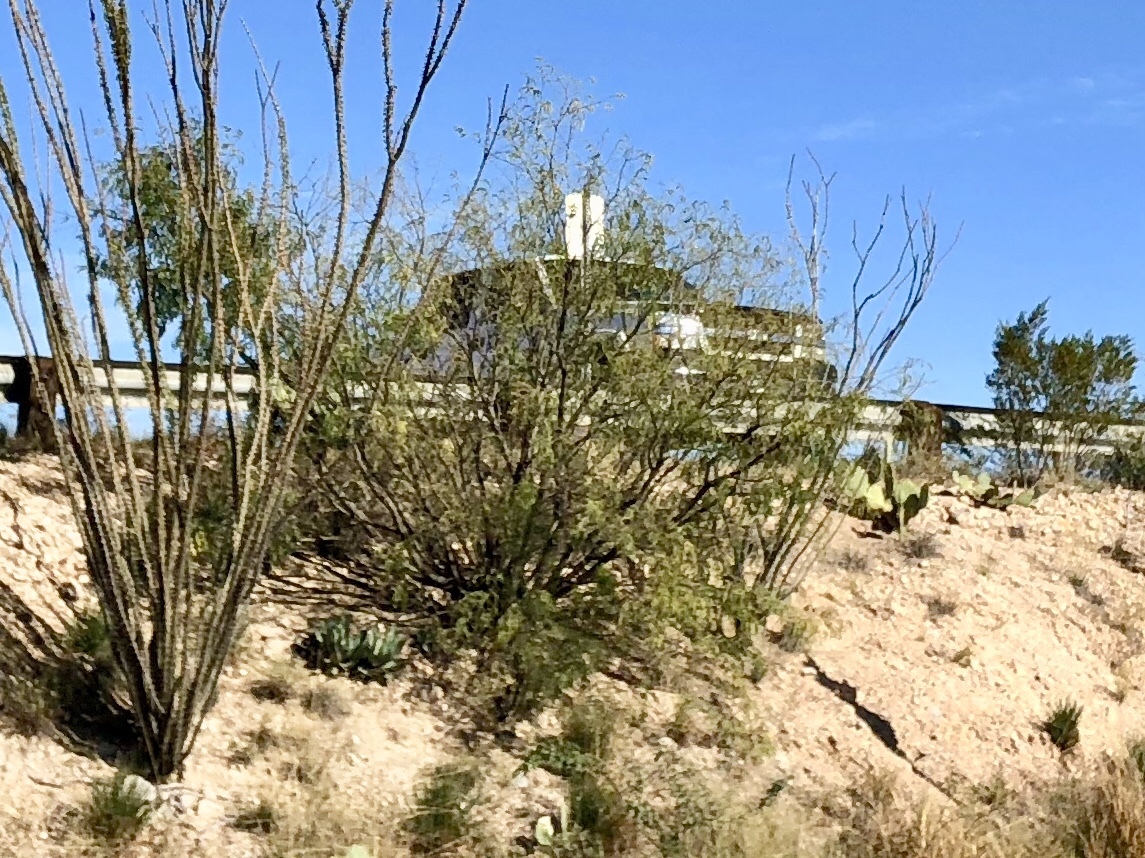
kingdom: Plantae
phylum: Tracheophyta
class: Magnoliopsida
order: Zygophyllales
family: Zygophyllaceae
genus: Larrea
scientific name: Larrea tridentata
